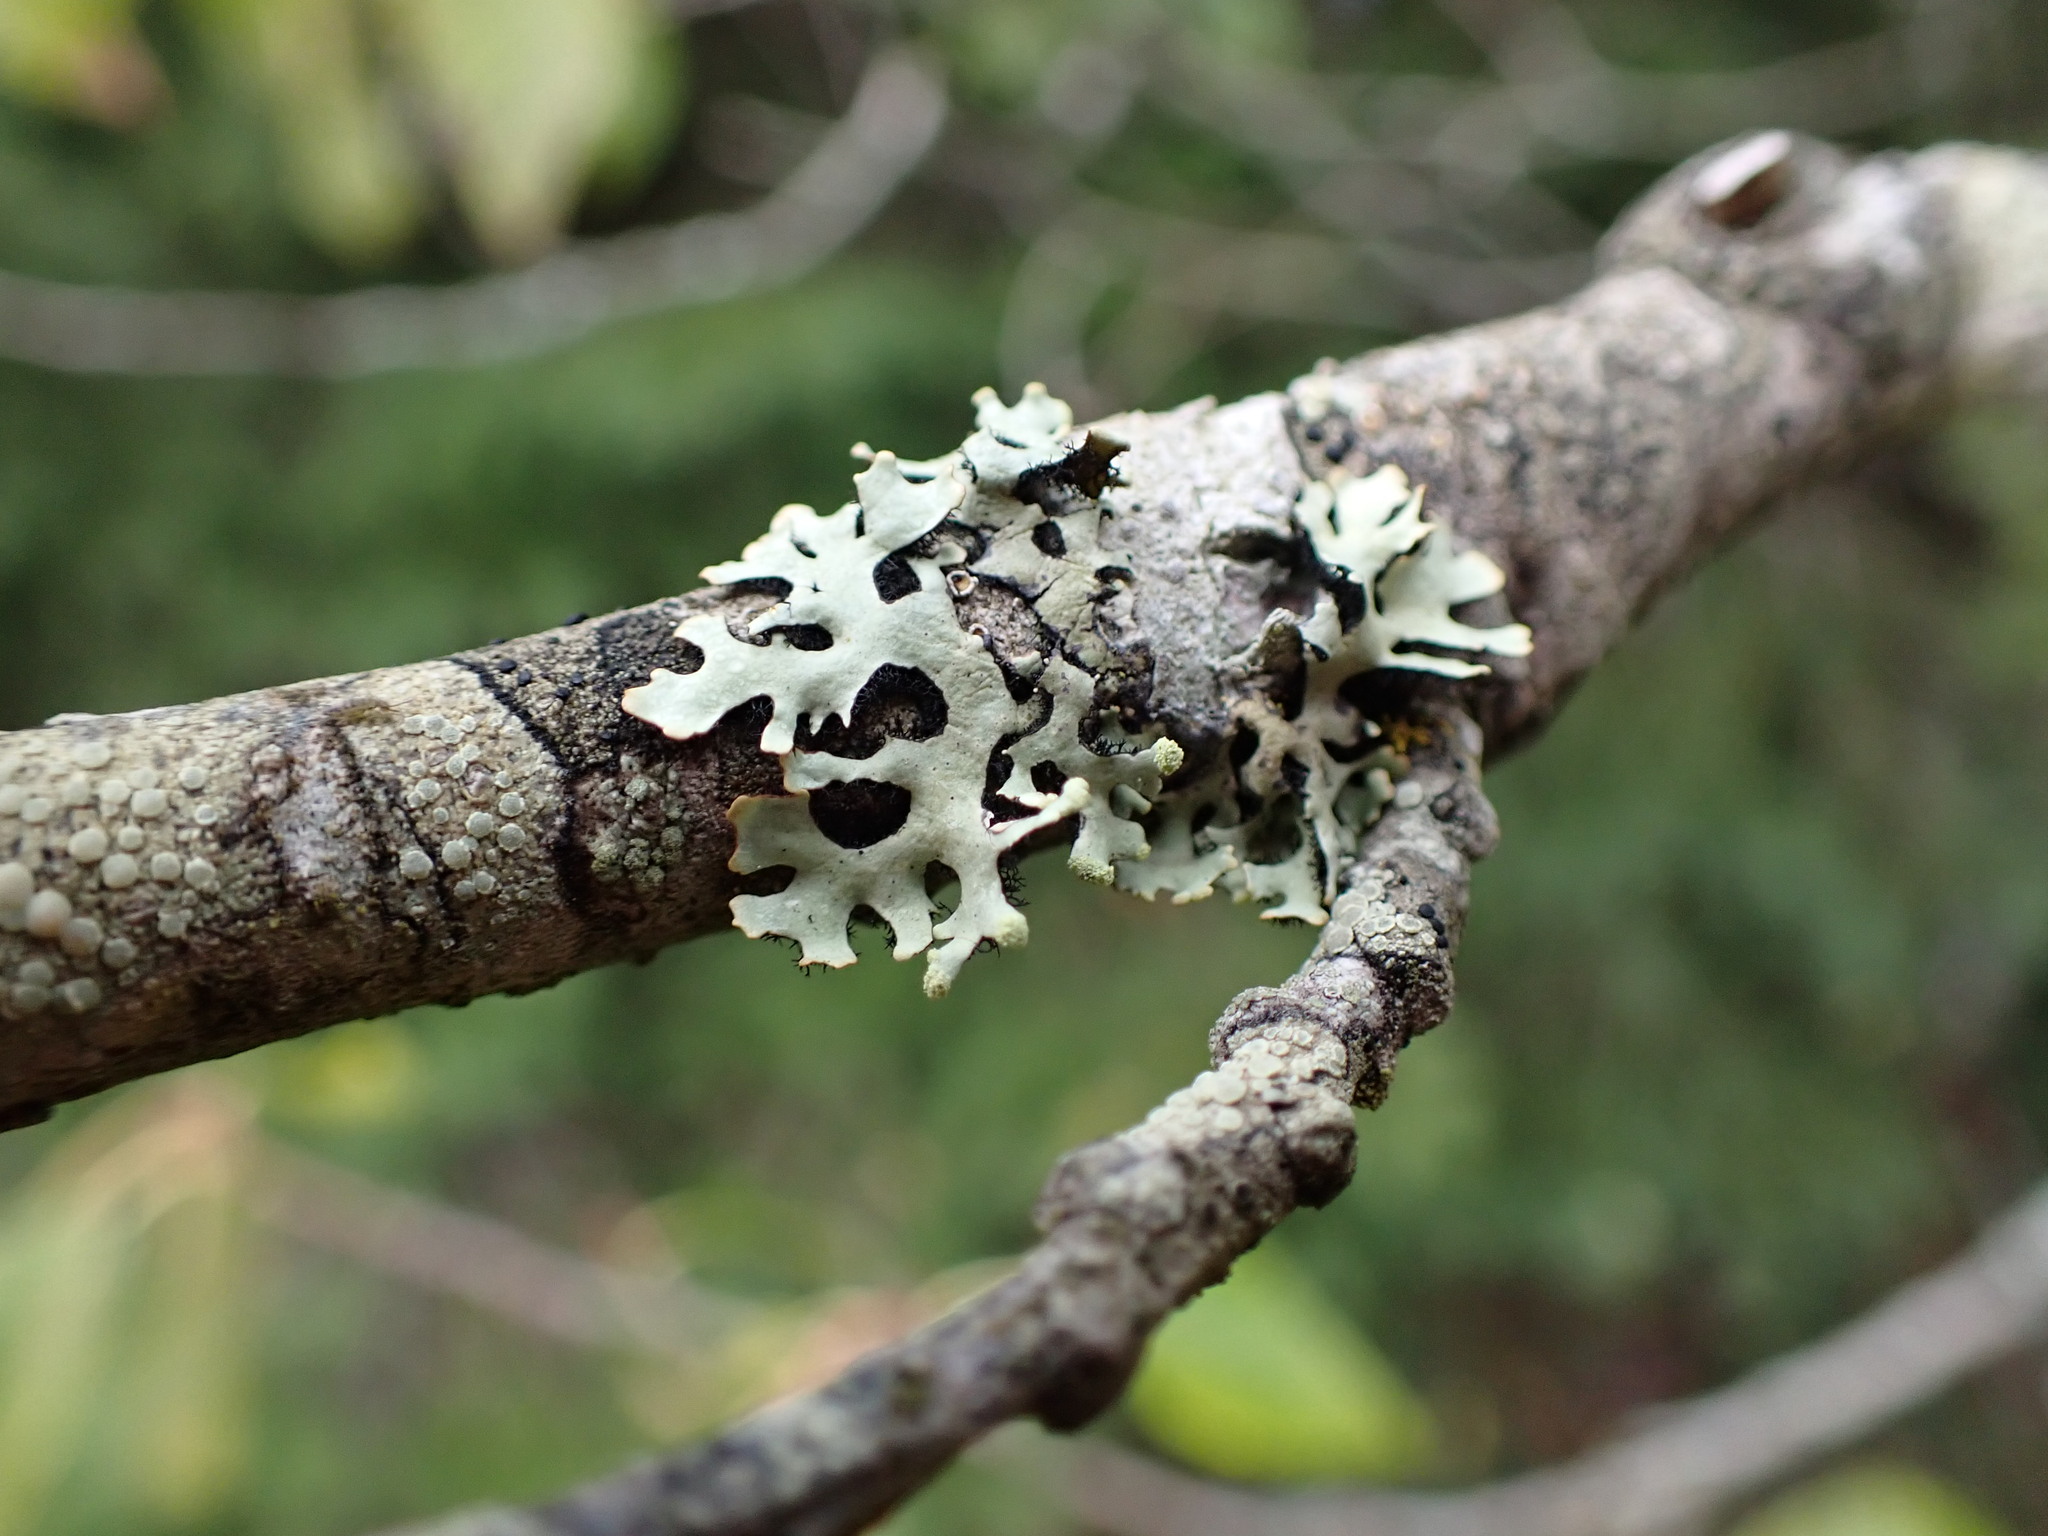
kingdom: Fungi
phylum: Ascomycota
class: Lecanoromycetes
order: Lecanorales
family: Parmeliaceae
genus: Hypotrachyna
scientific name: Hypotrachyna sinuosa
